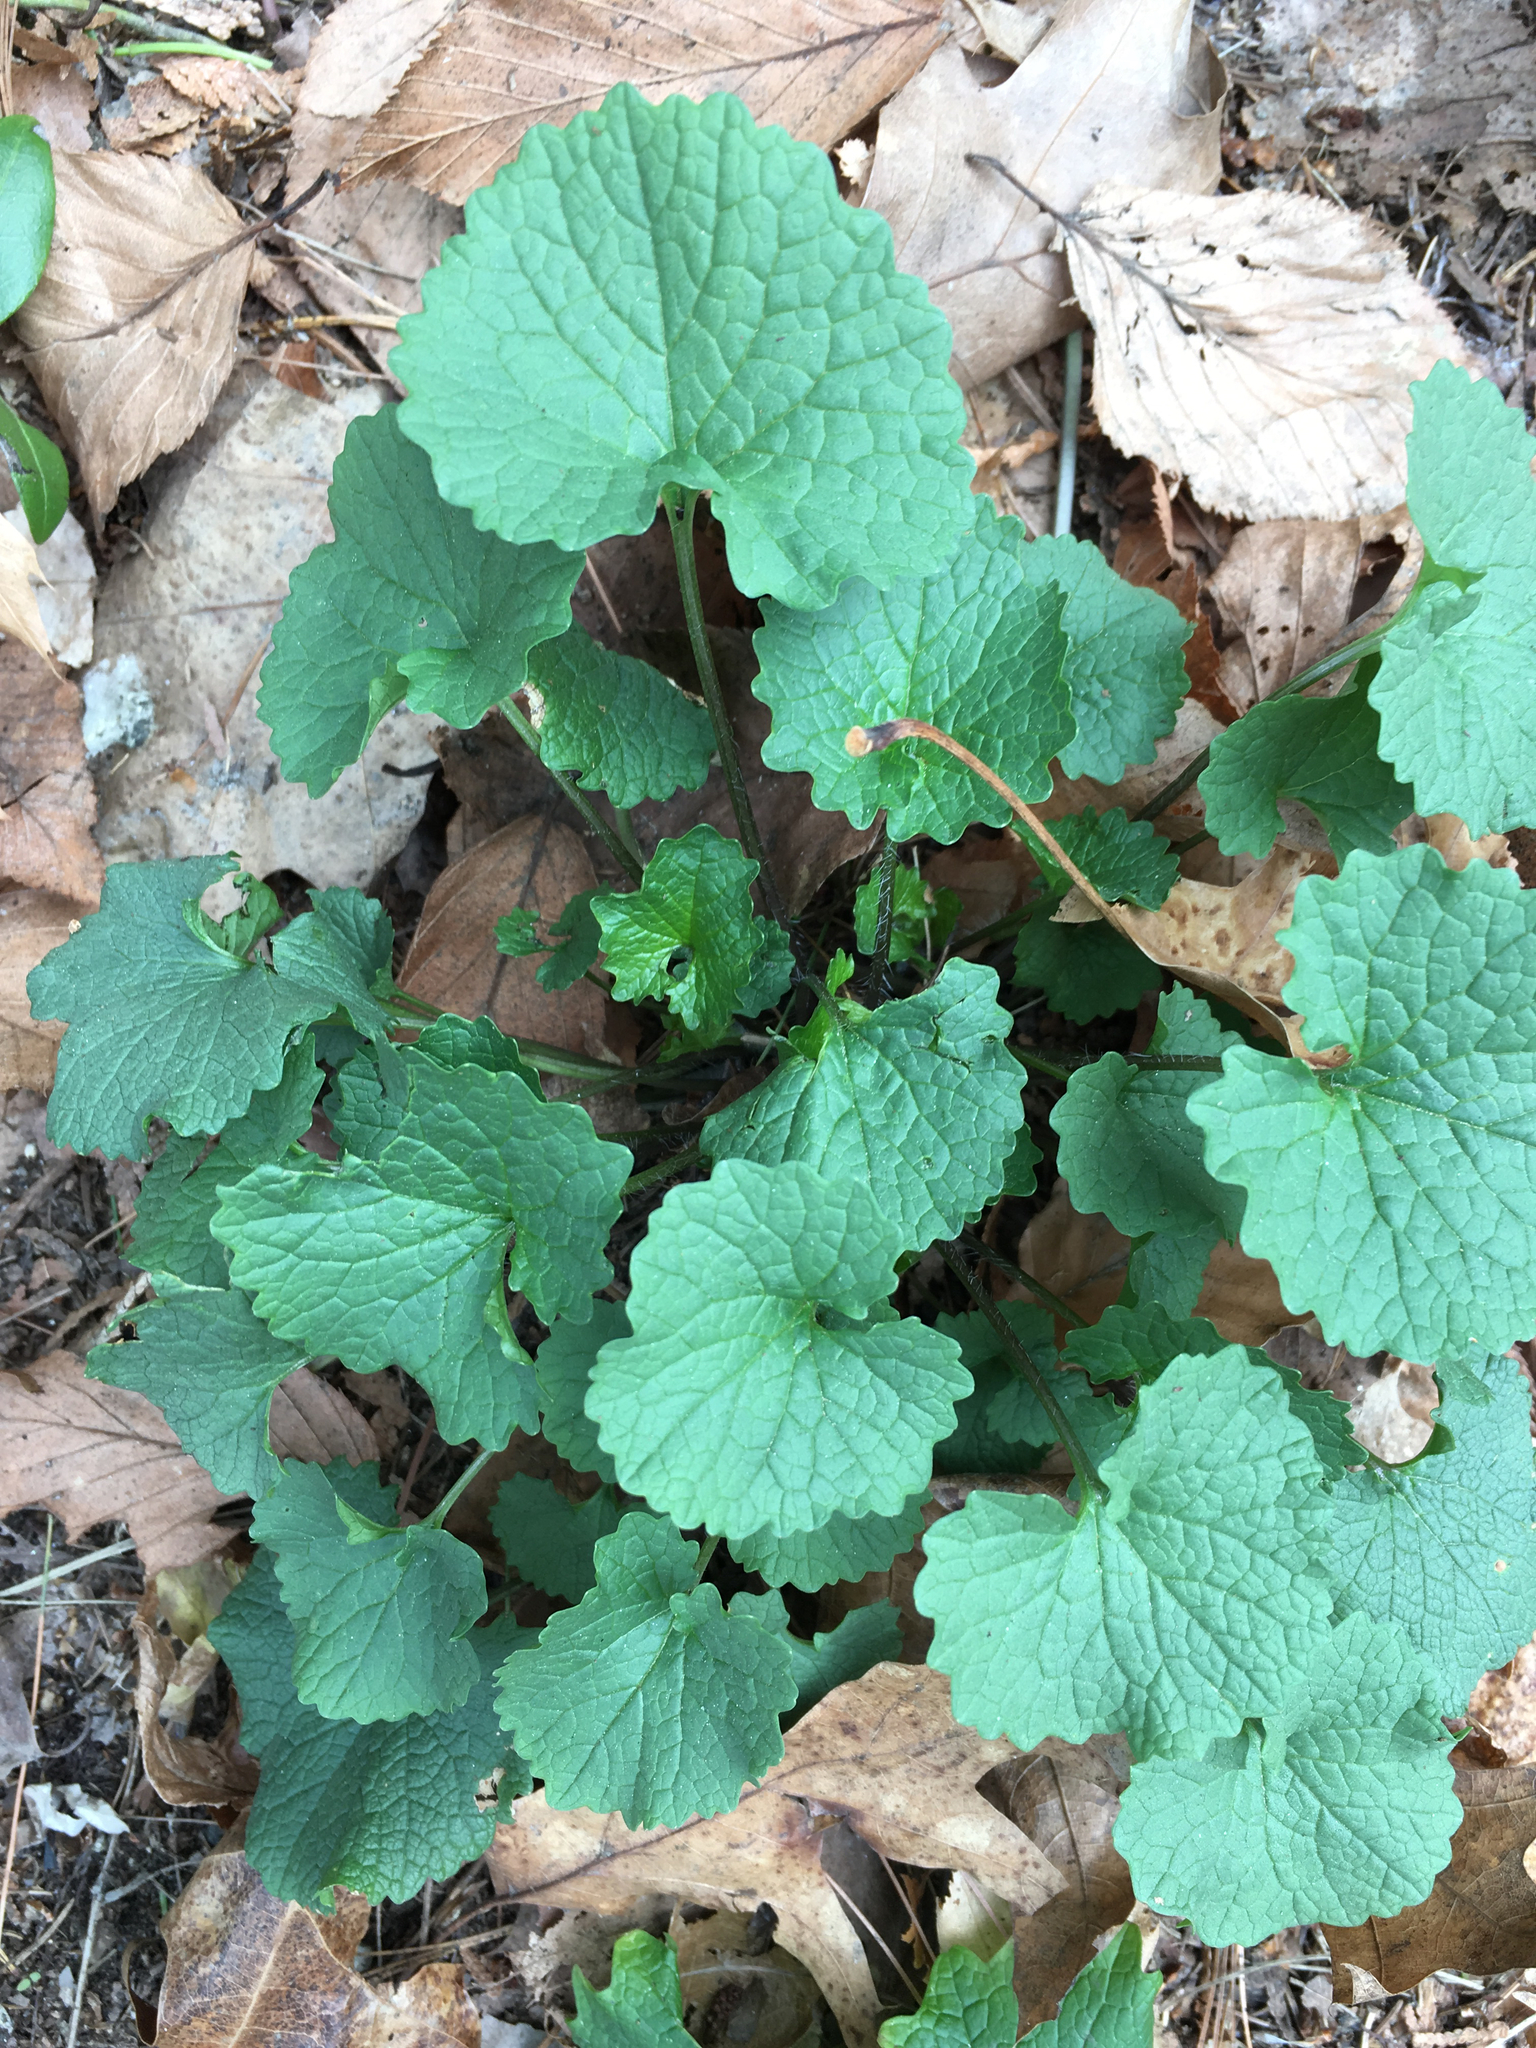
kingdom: Plantae
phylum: Tracheophyta
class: Magnoliopsida
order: Brassicales
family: Brassicaceae
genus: Alliaria
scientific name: Alliaria petiolata
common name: Garlic mustard
